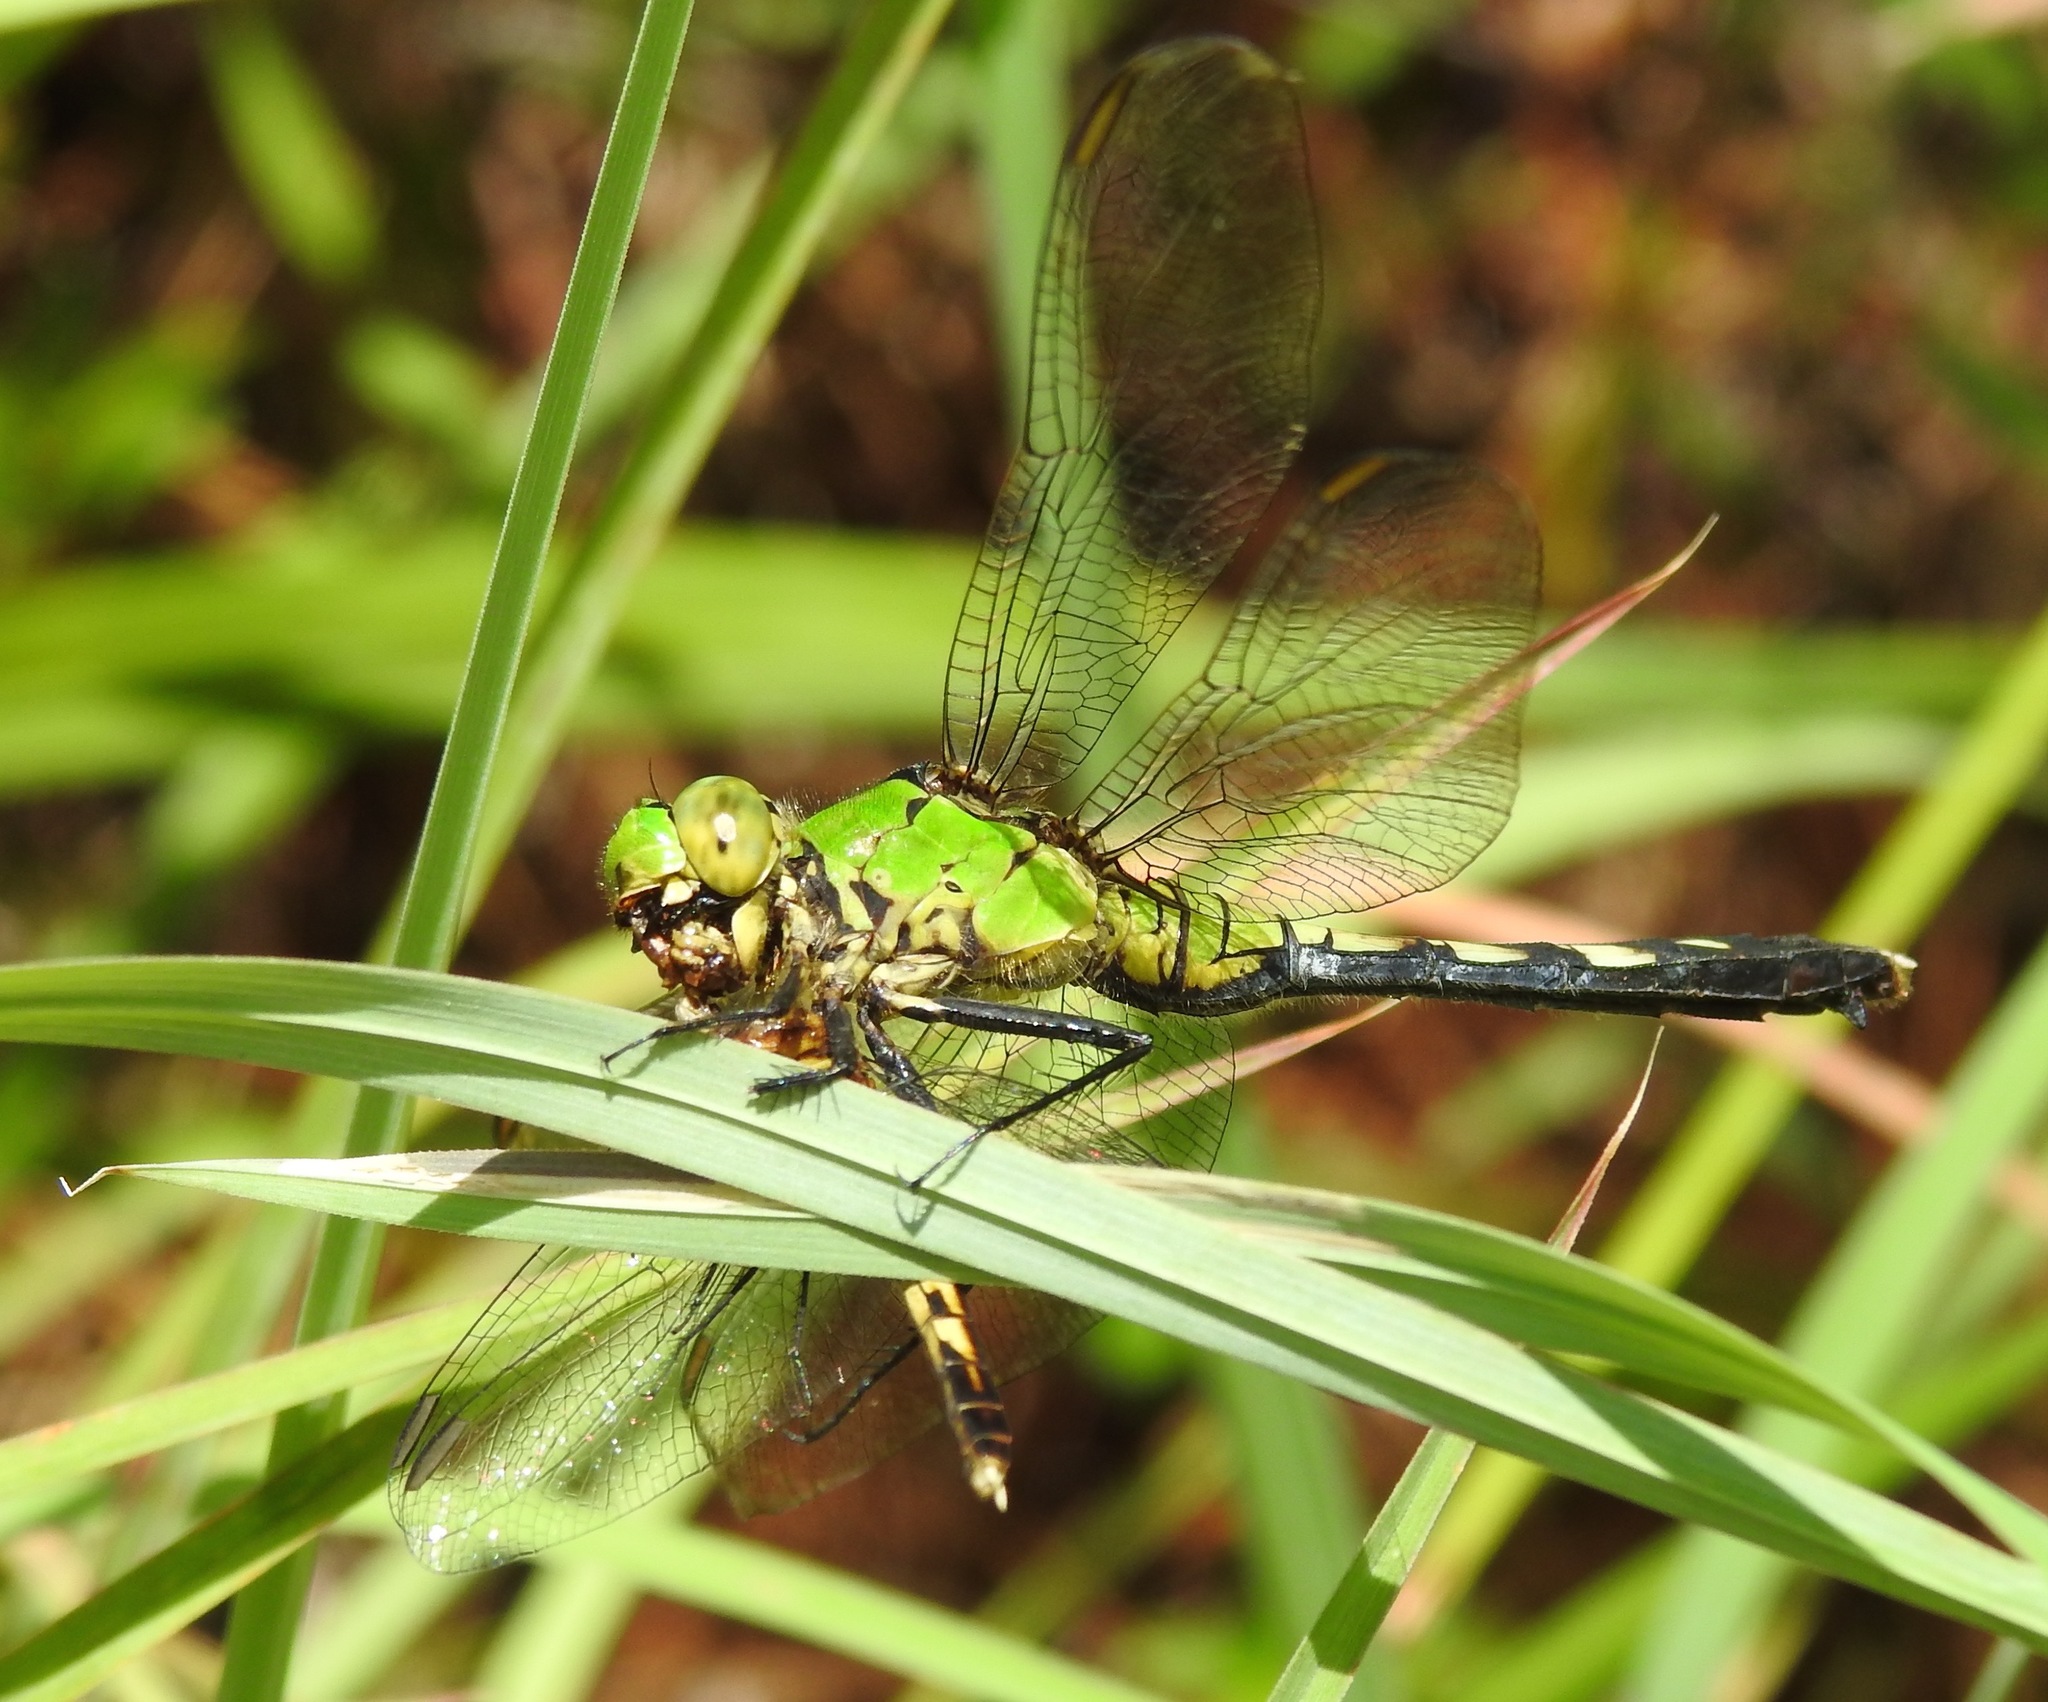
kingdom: Animalia
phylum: Arthropoda
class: Insecta
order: Odonata
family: Libellulidae
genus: Erythemis
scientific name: Erythemis simplicicollis
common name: Eastern pondhawk
